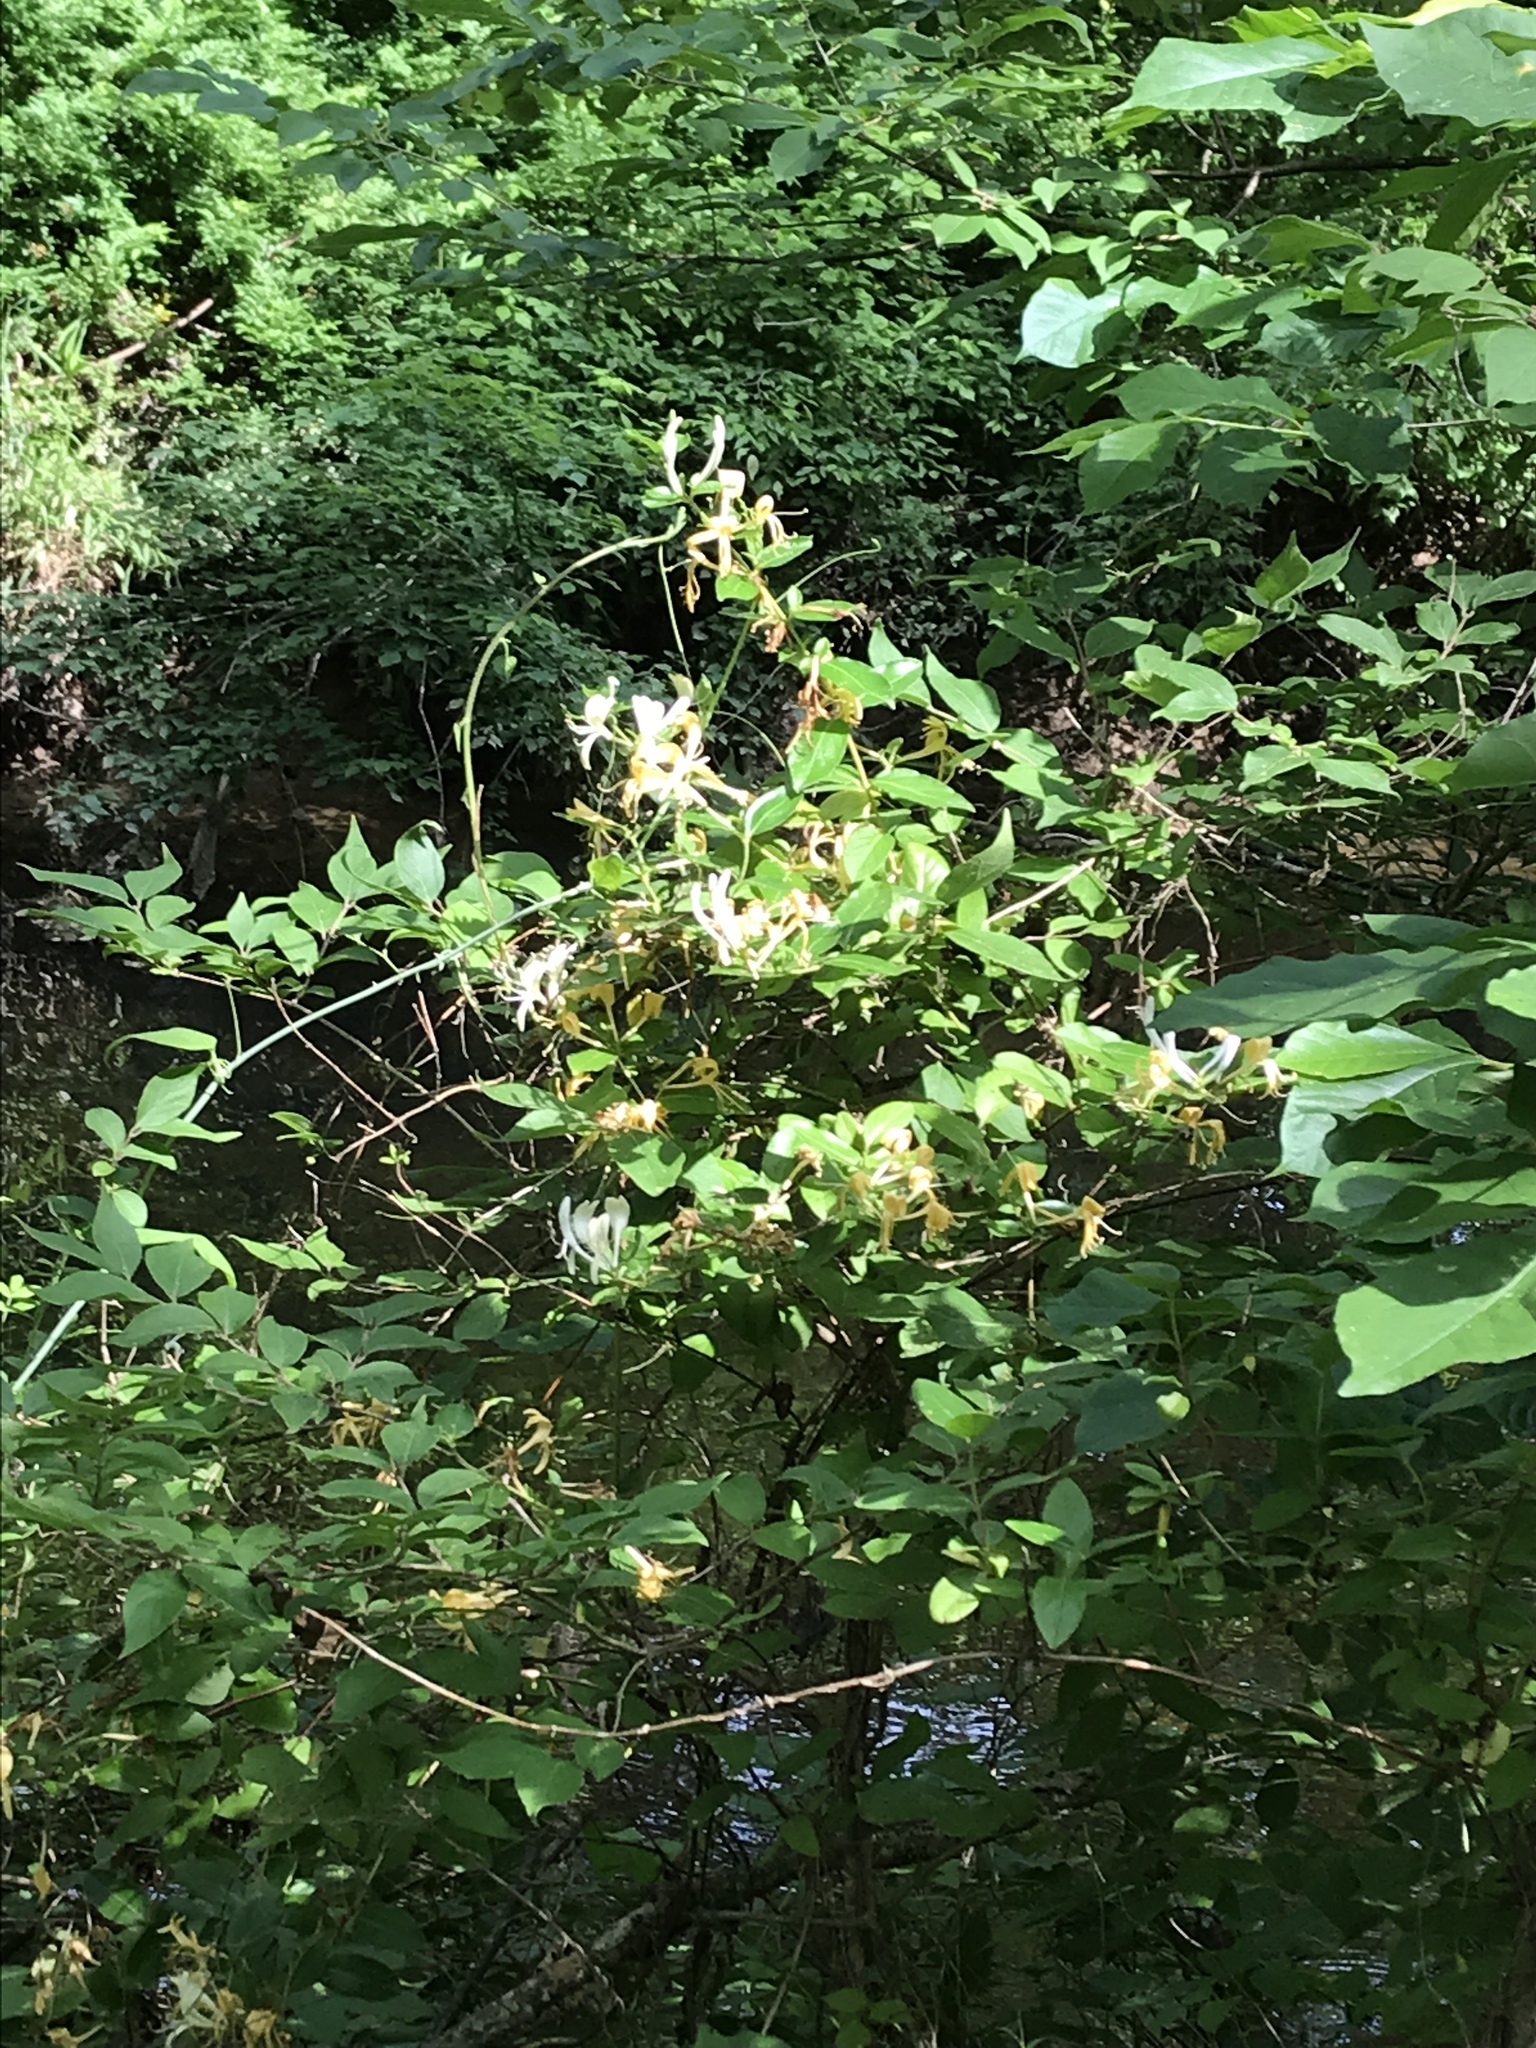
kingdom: Plantae
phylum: Tracheophyta
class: Magnoliopsida
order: Dipsacales
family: Caprifoliaceae
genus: Lonicera
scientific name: Lonicera japonica
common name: Japanese honeysuckle
